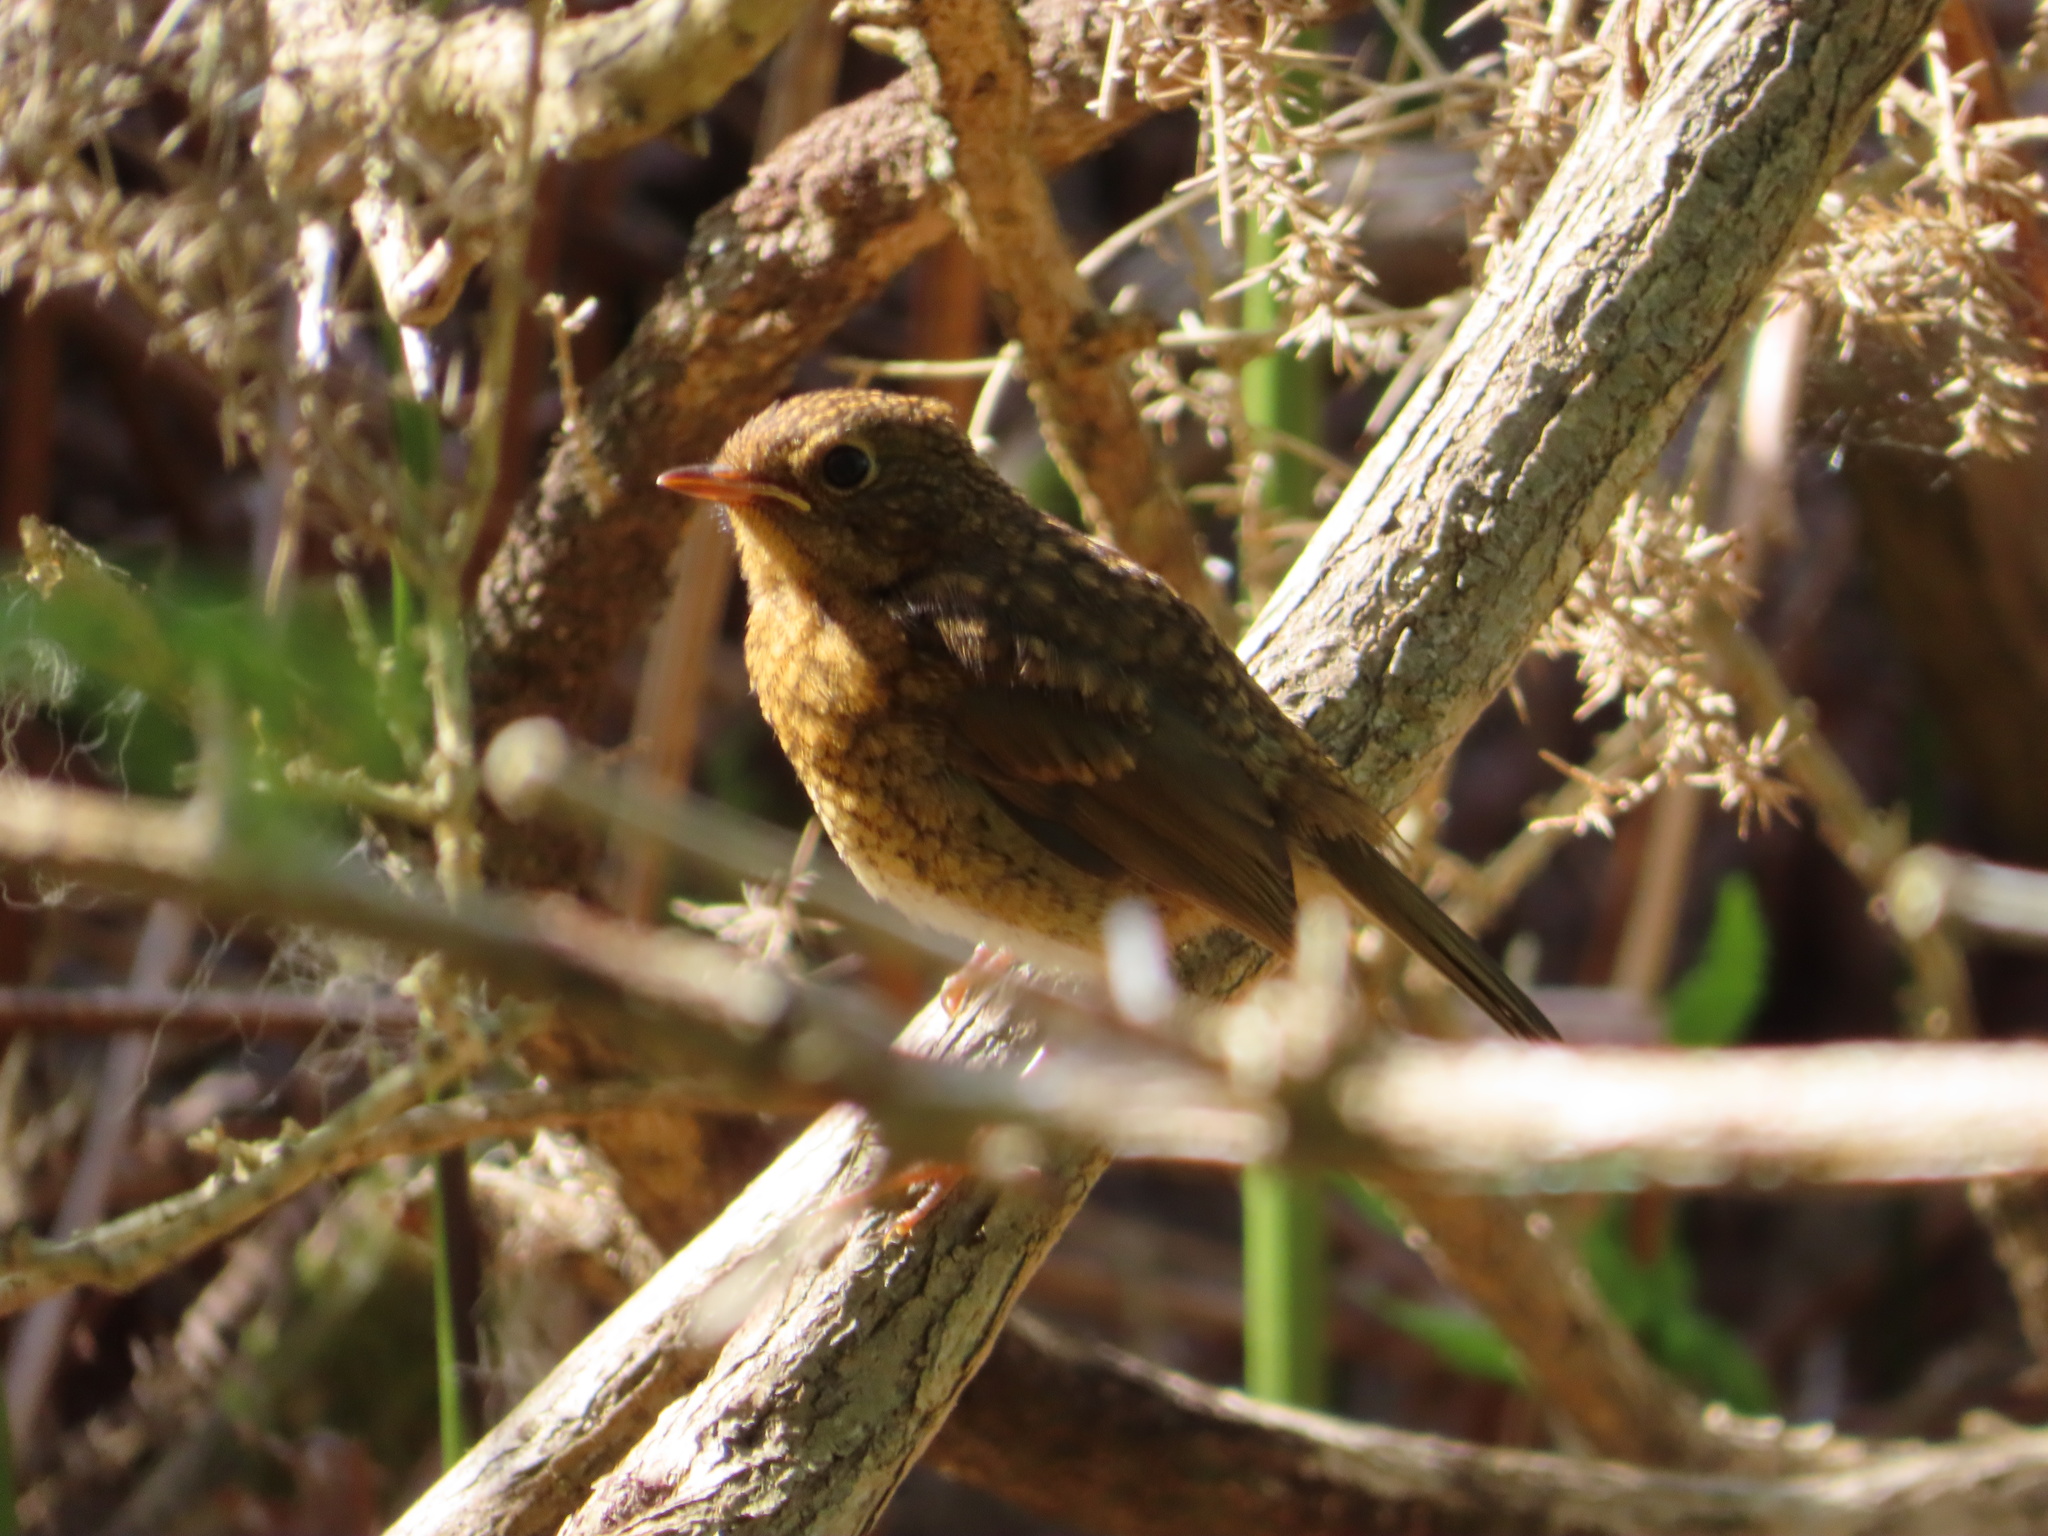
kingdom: Animalia
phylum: Chordata
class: Aves
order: Passeriformes
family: Muscicapidae
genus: Erithacus
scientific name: Erithacus rubecula
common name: European robin
